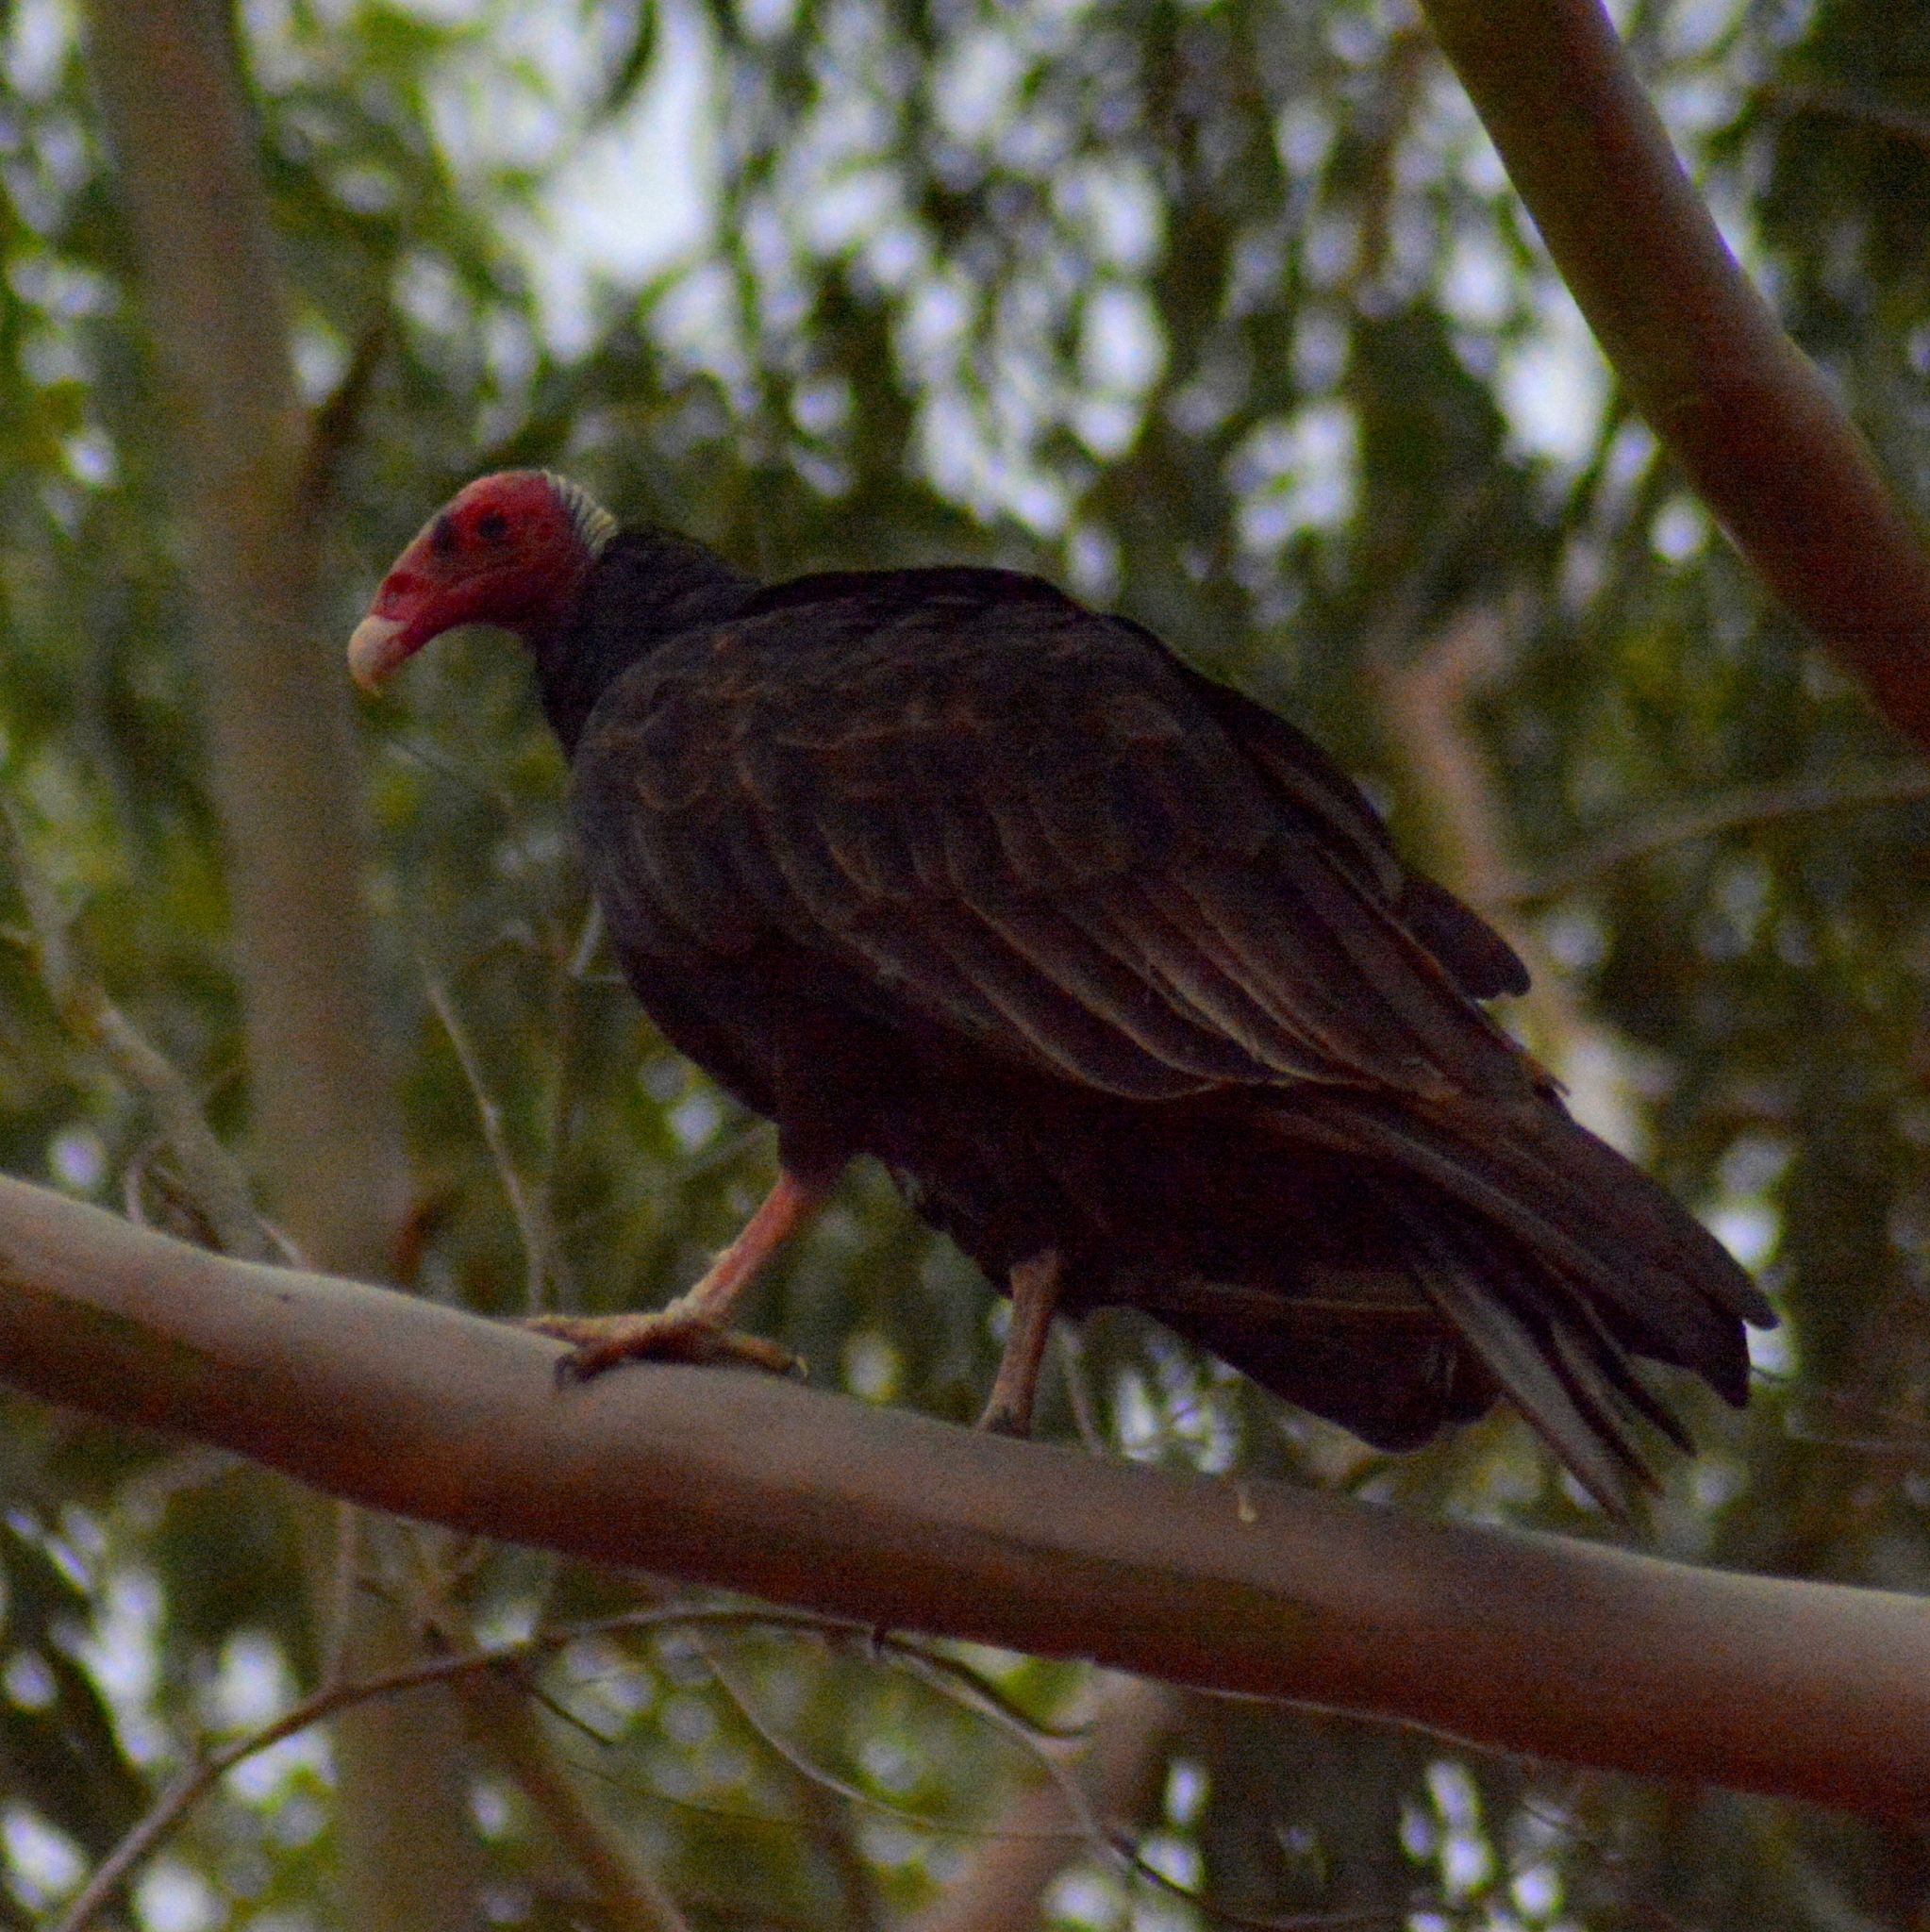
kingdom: Animalia
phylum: Chordata
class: Aves
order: Accipitriformes
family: Cathartidae
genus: Cathartes
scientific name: Cathartes aura
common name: Turkey vulture
